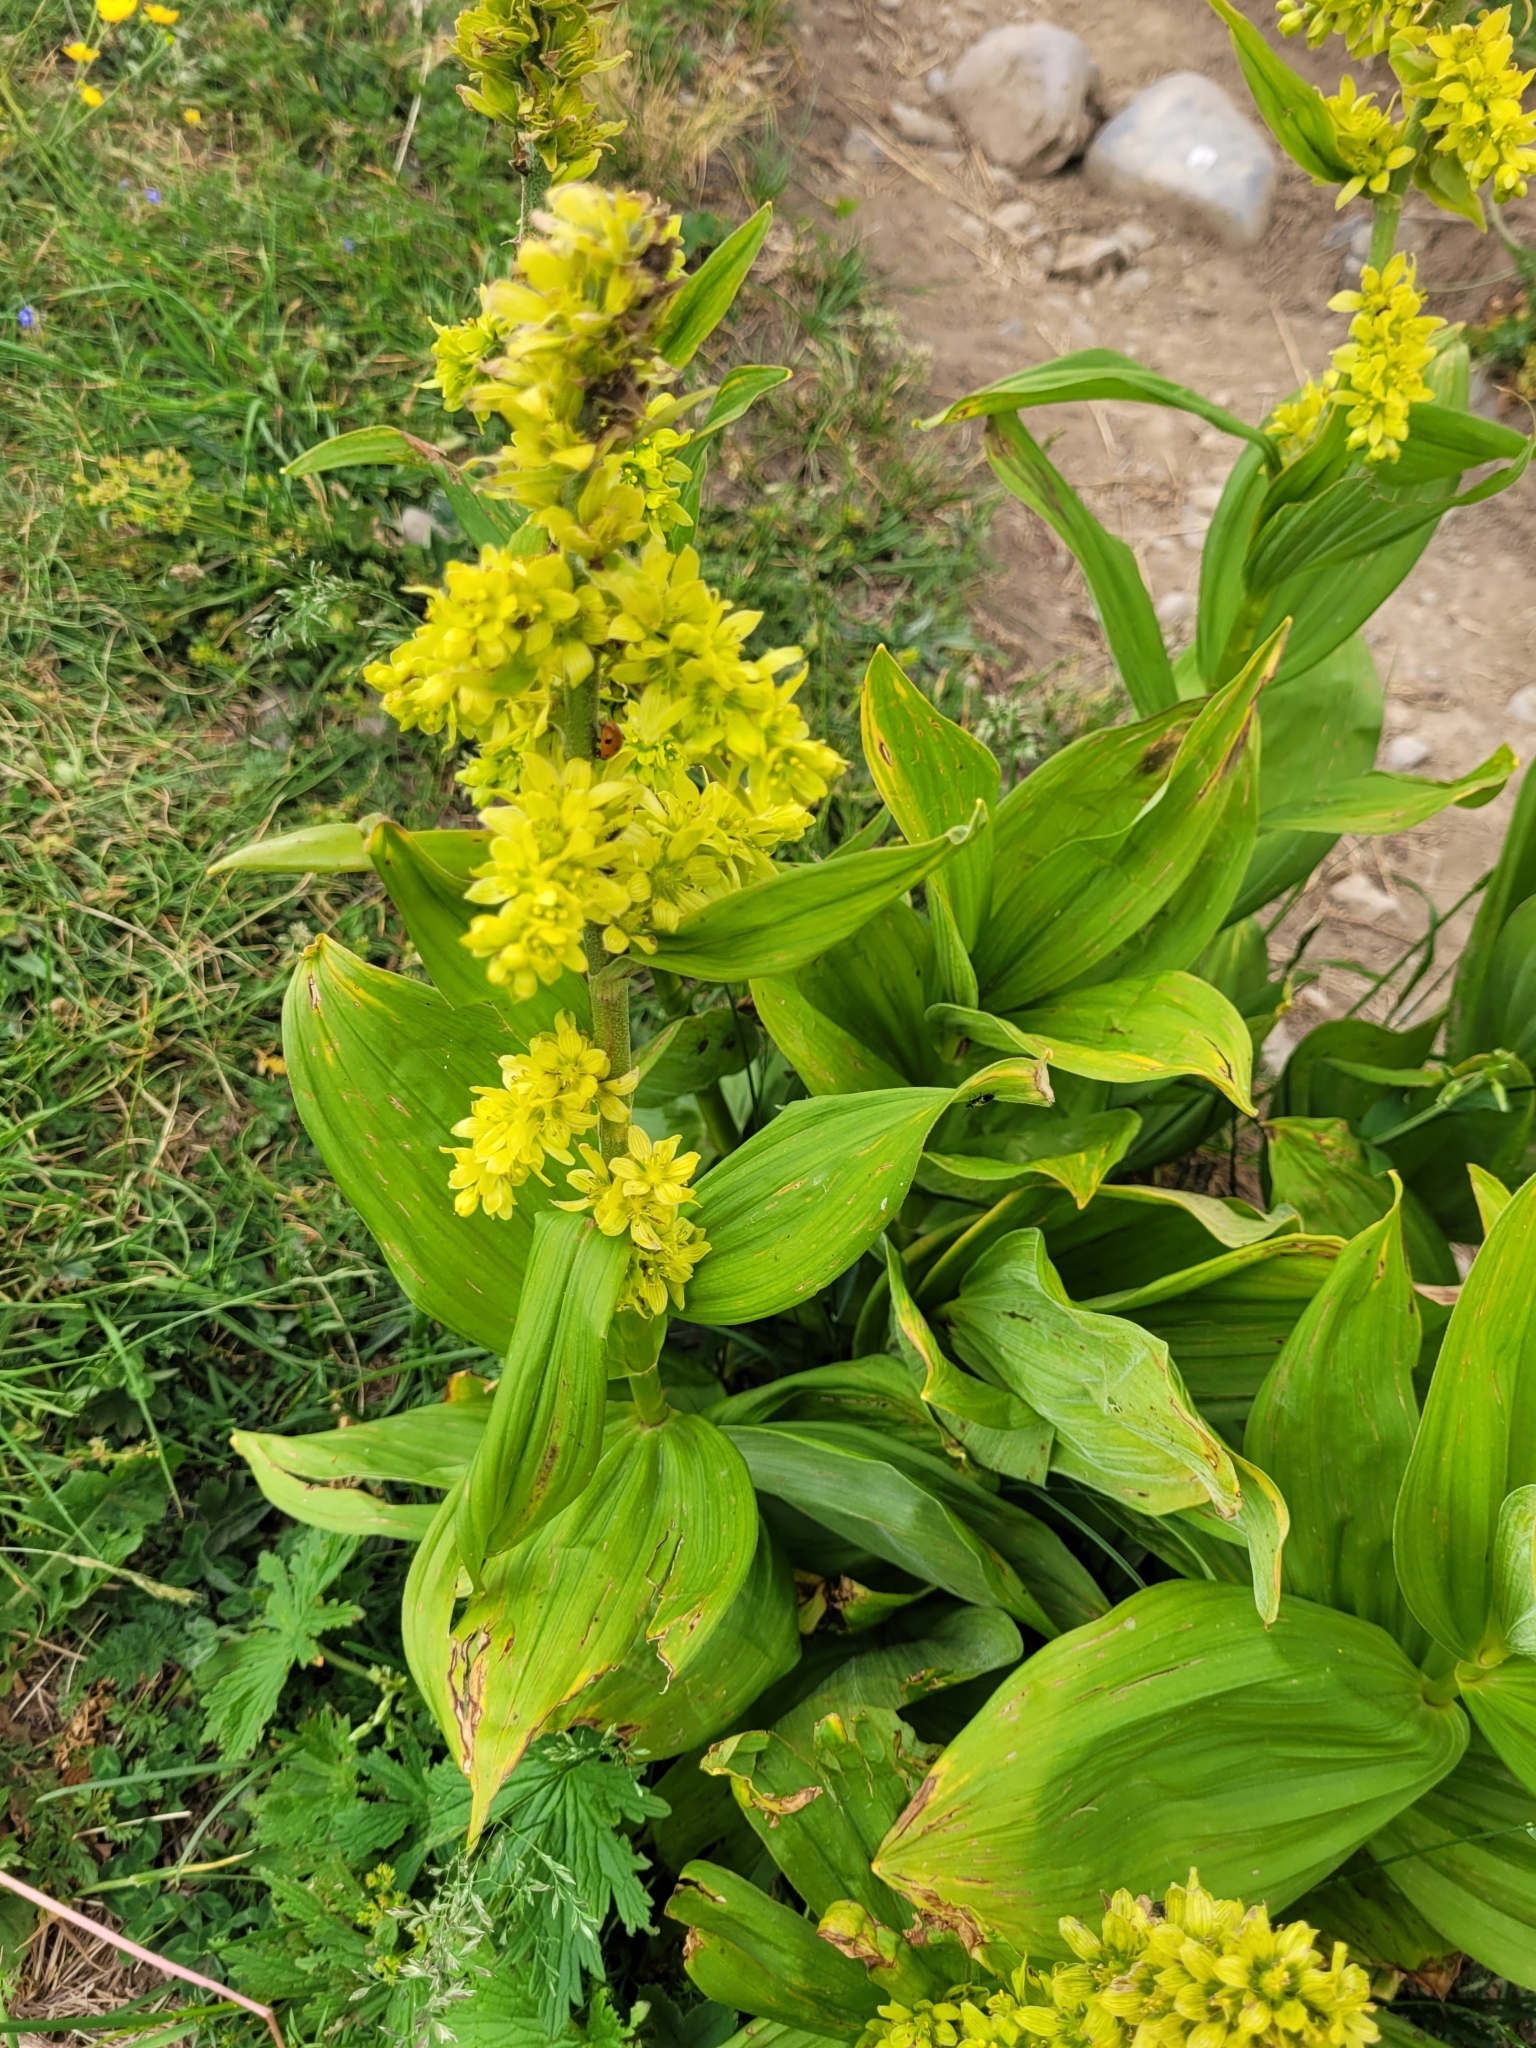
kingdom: Plantae
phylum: Tracheophyta
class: Liliopsida
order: Liliales
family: Melanthiaceae
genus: Veratrum
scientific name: Veratrum lobelianum
